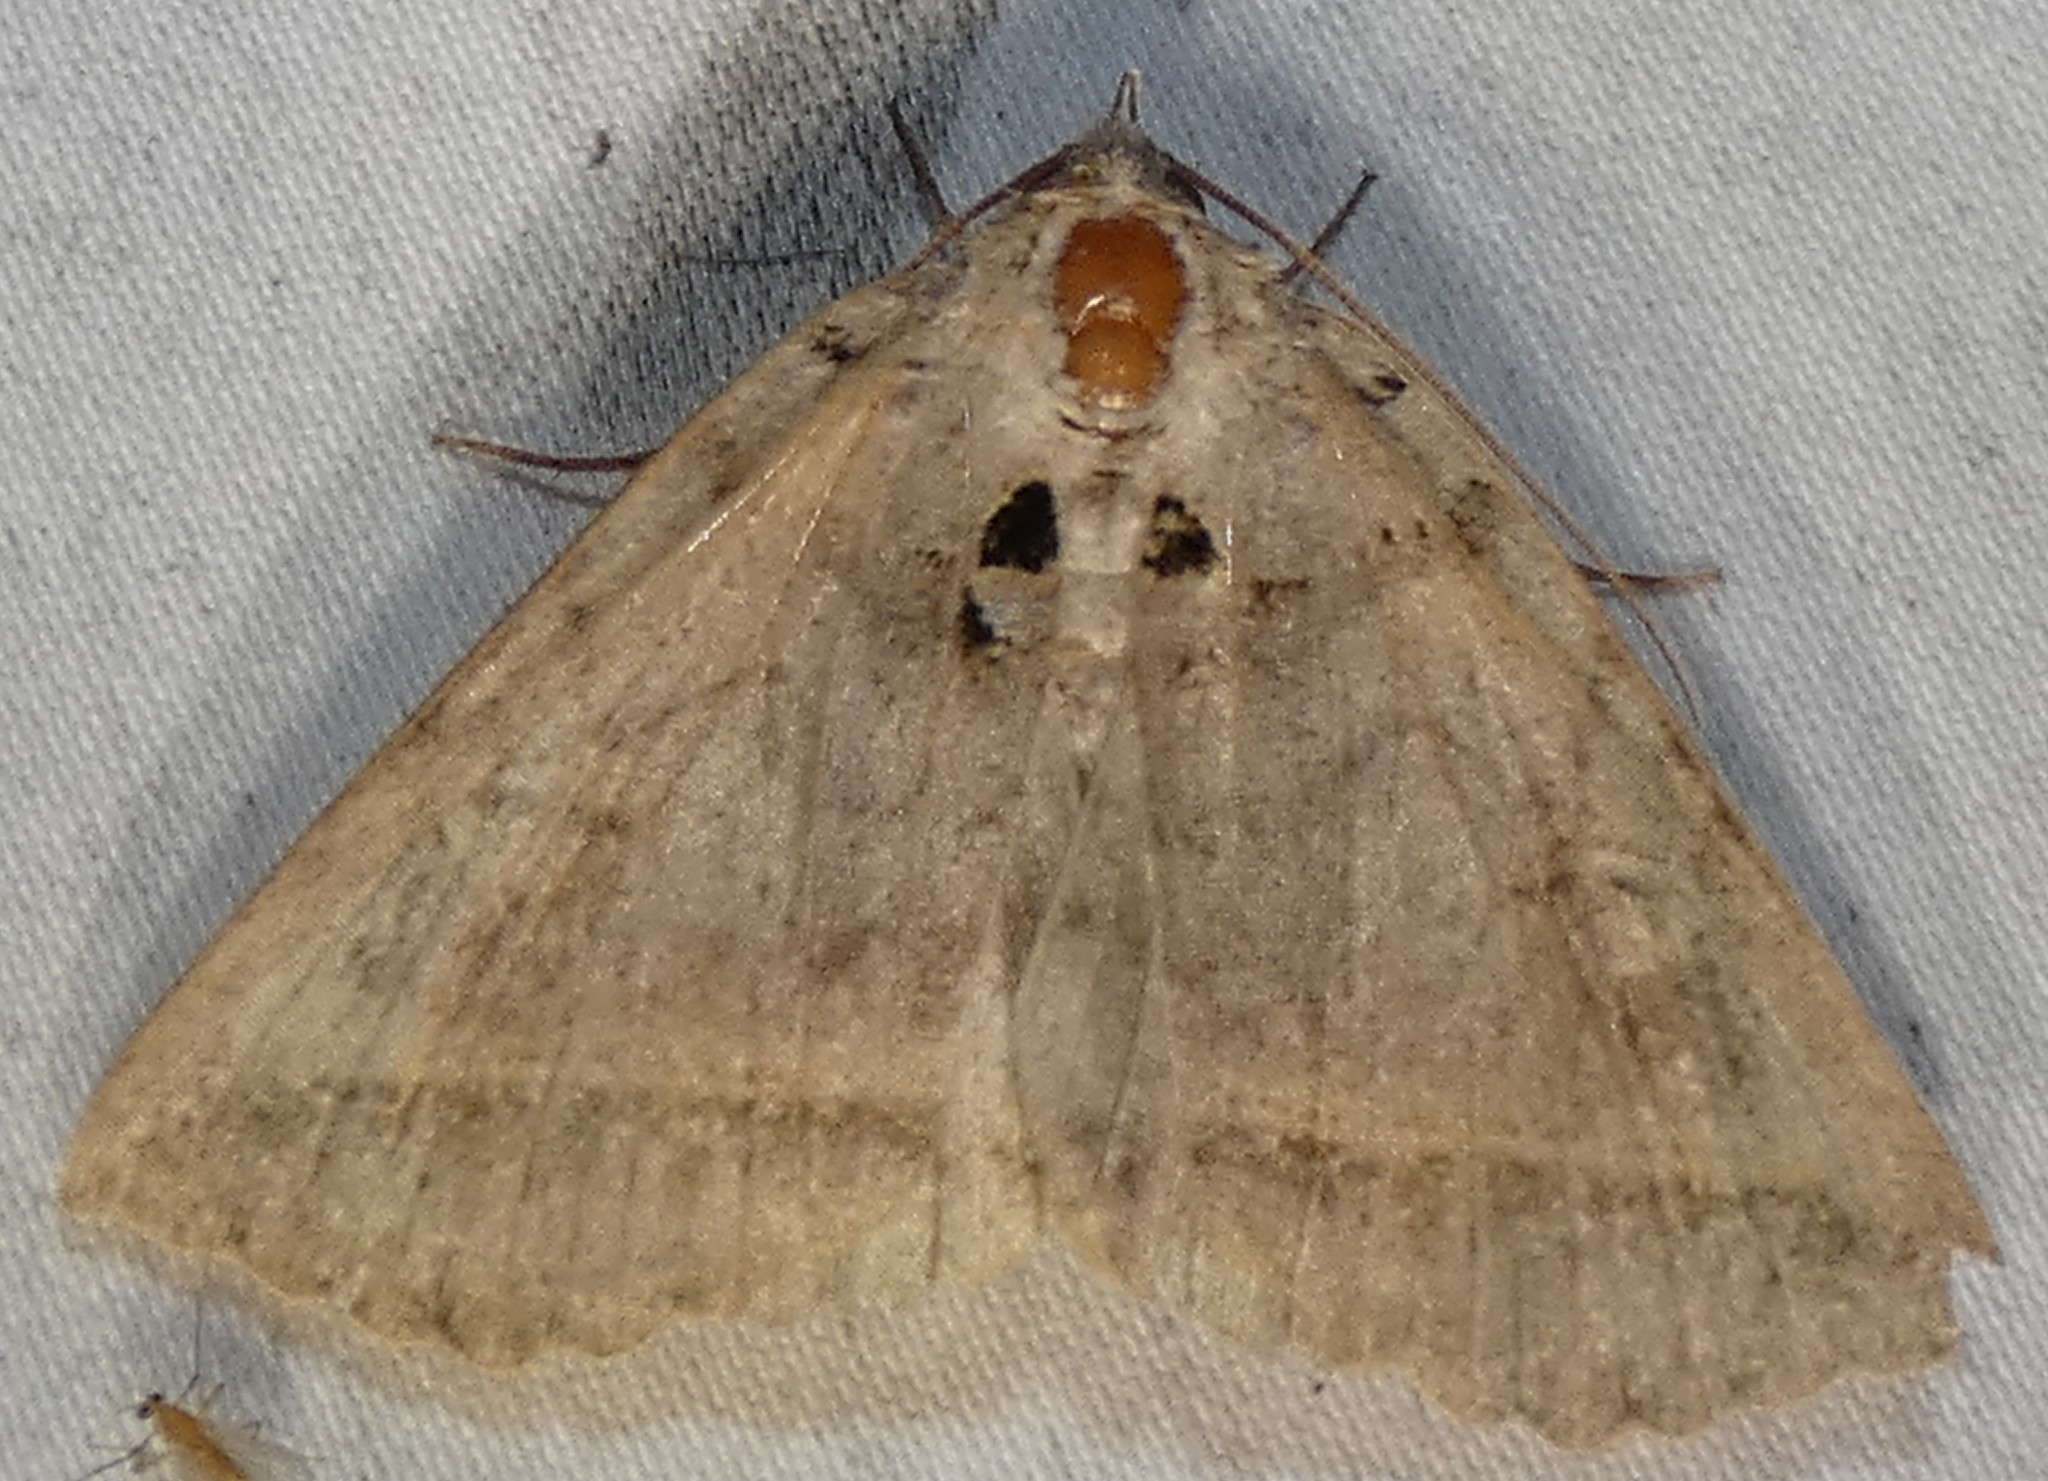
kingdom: Animalia
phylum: Arthropoda
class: Insecta
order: Lepidoptera
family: Erebidae
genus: Celiptera
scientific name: Celiptera frustulum
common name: Black bit moth
